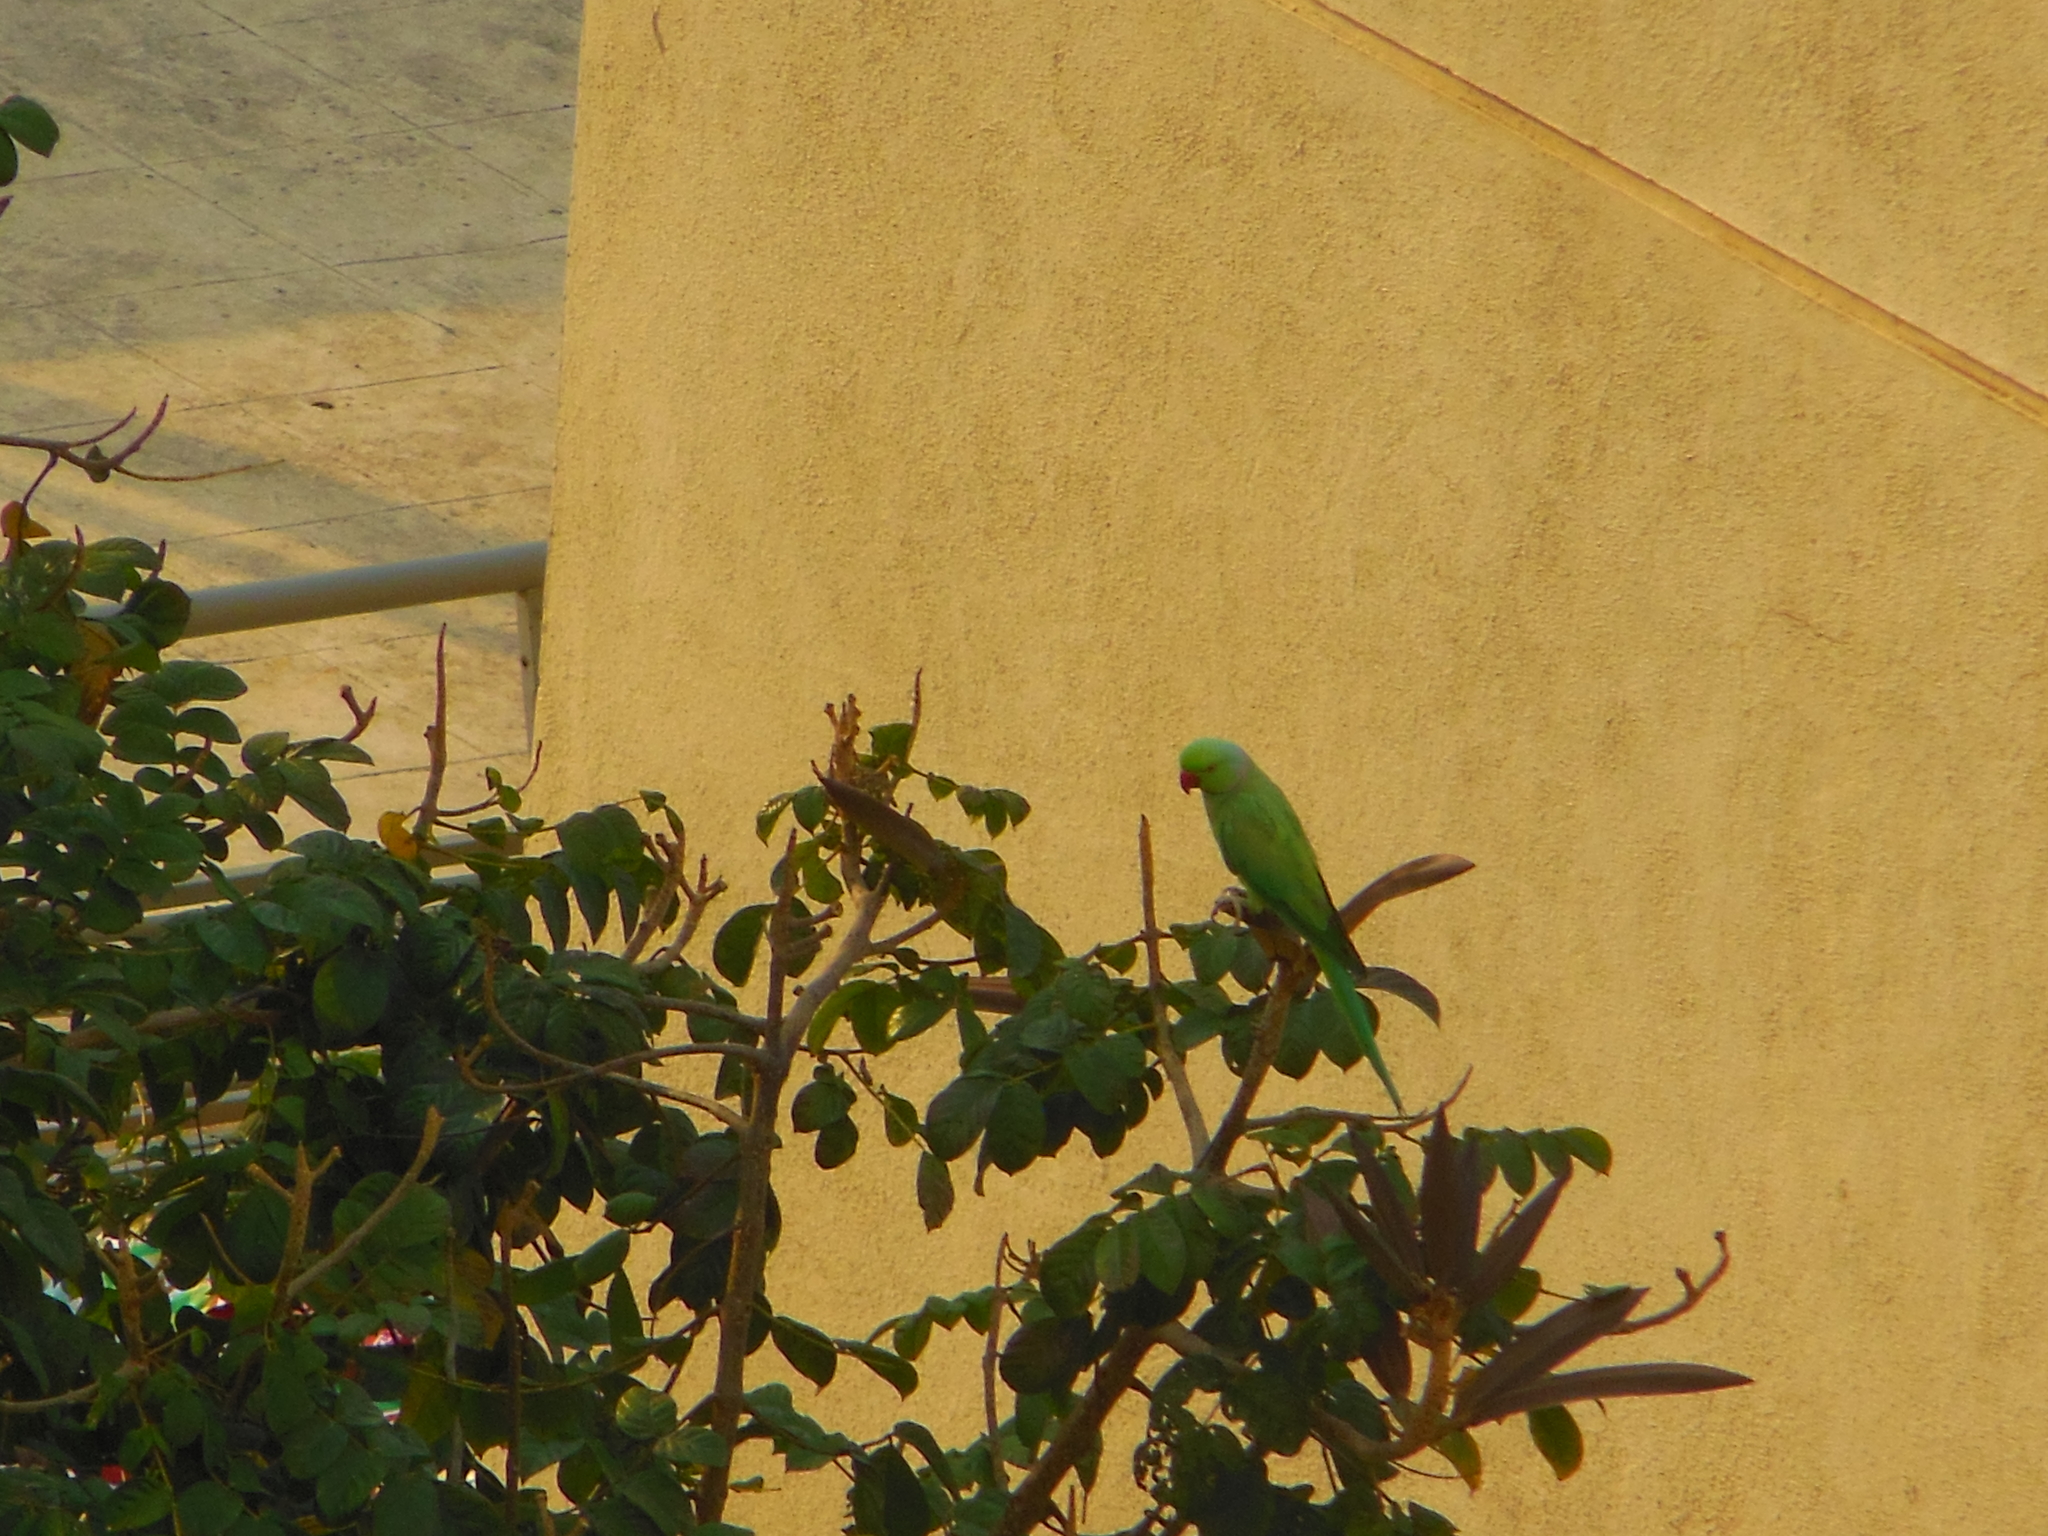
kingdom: Animalia
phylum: Chordata
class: Aves
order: Psittaciformes
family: Psittacidae
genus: Psittacula
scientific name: Psittacula krameri
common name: Rose-ringed parakeet
